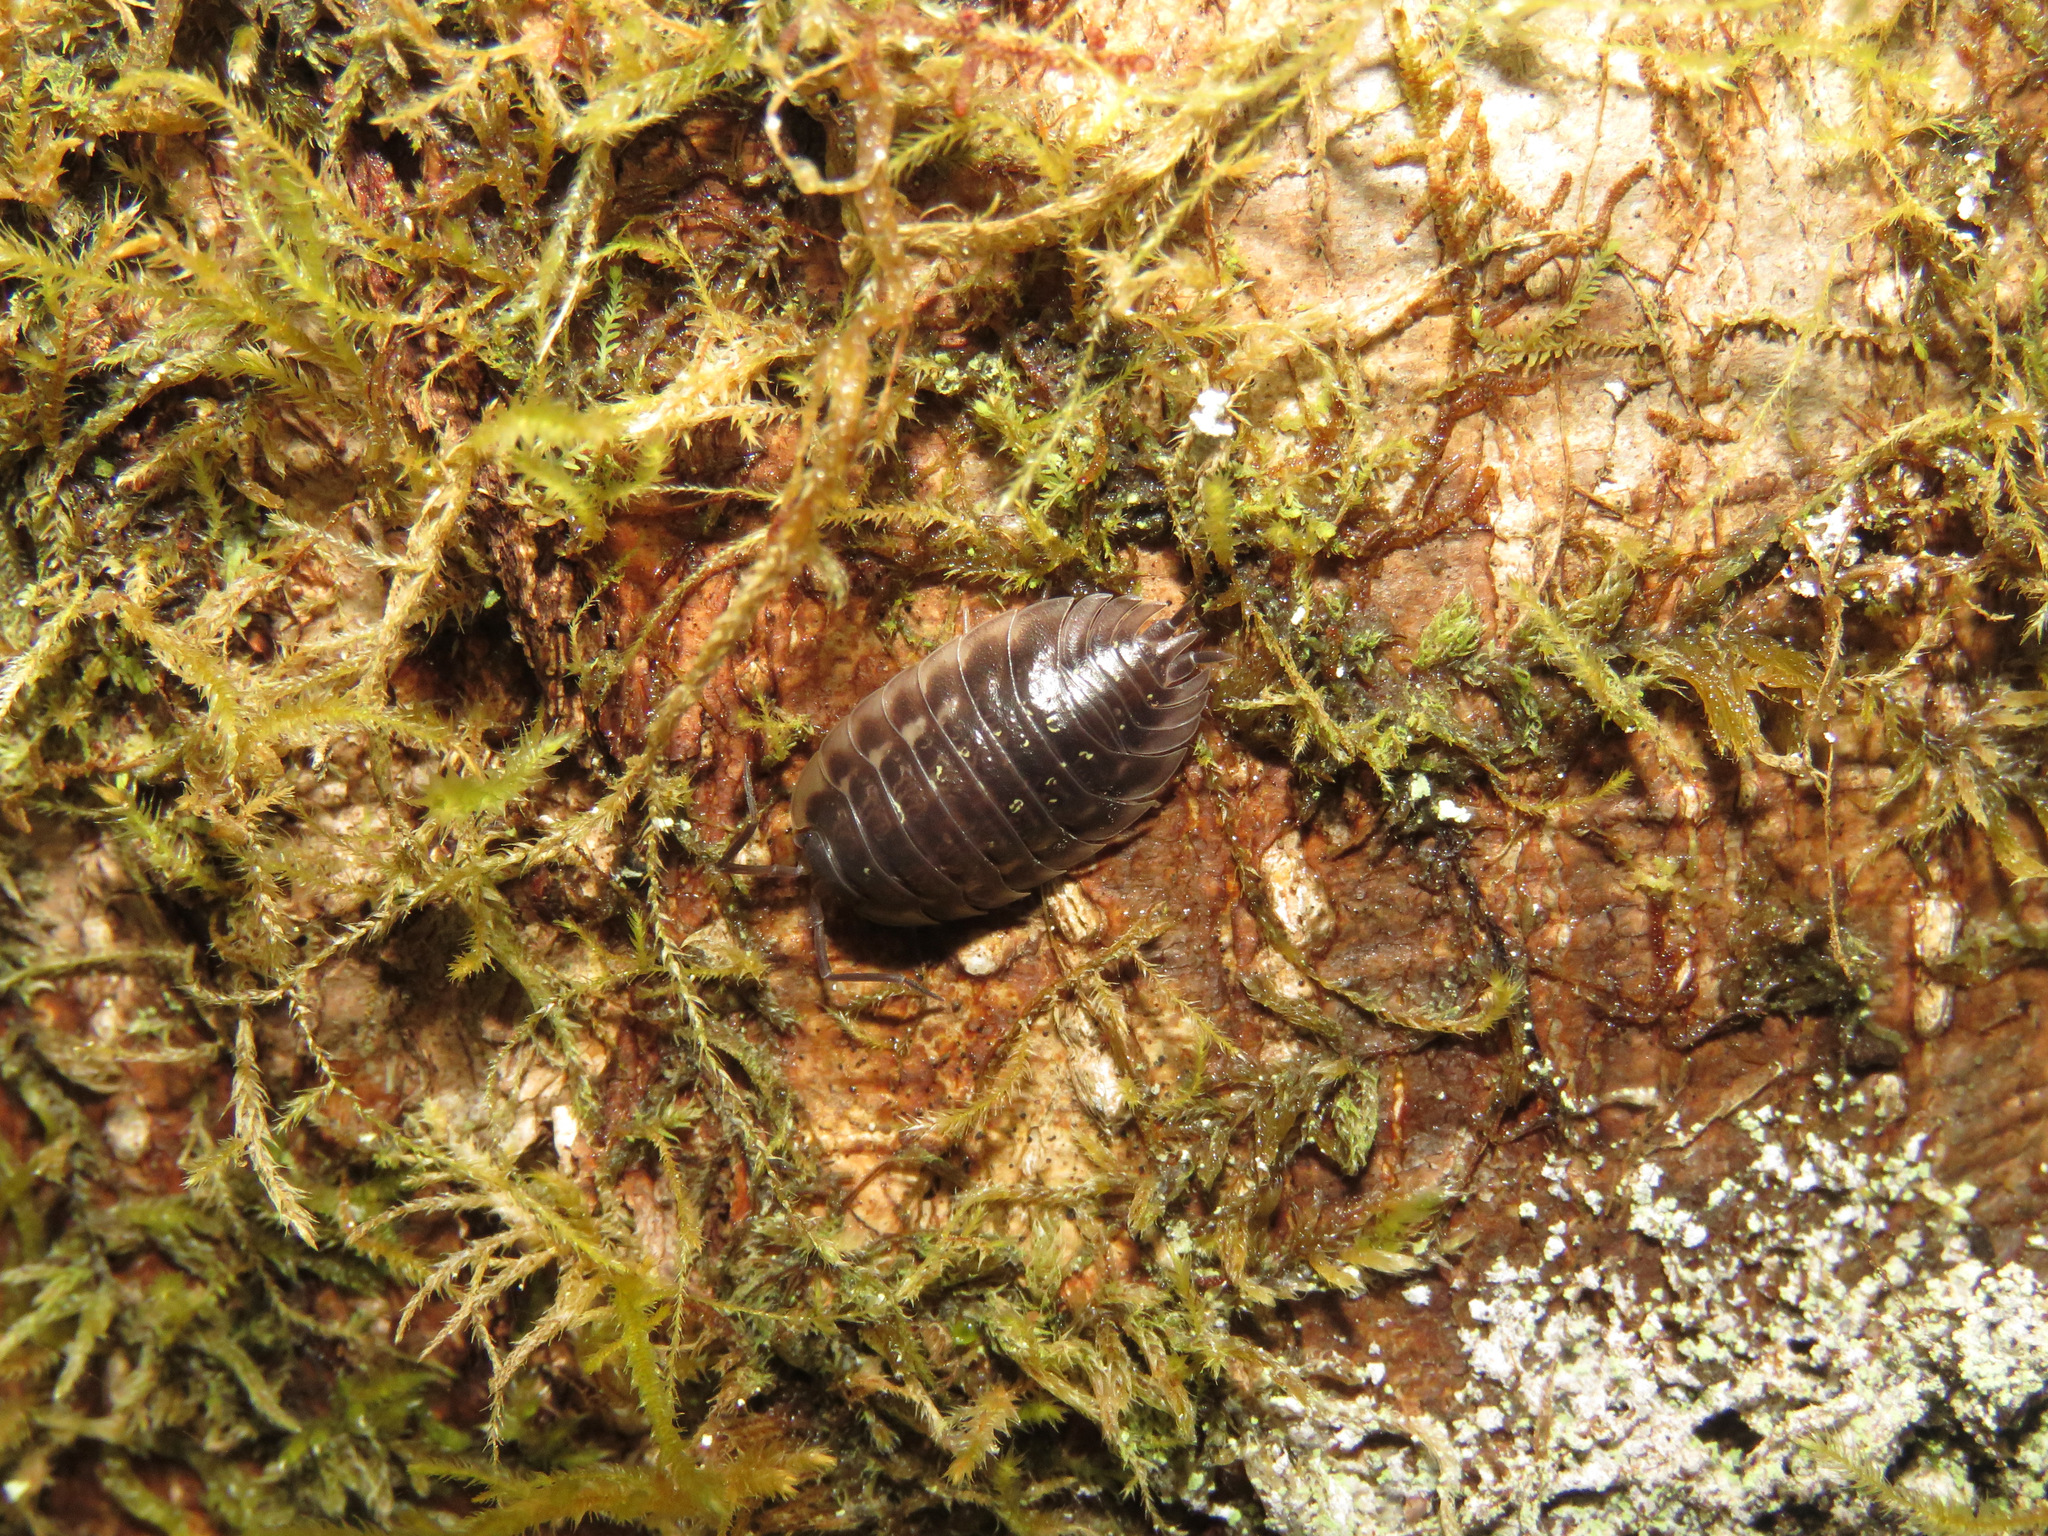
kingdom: Animalia
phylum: Arthropoda
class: Malacostraca
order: Isopoda
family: Oniscidae
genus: Oniscus
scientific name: Oniscus asellus
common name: Common shiny woodlouse
